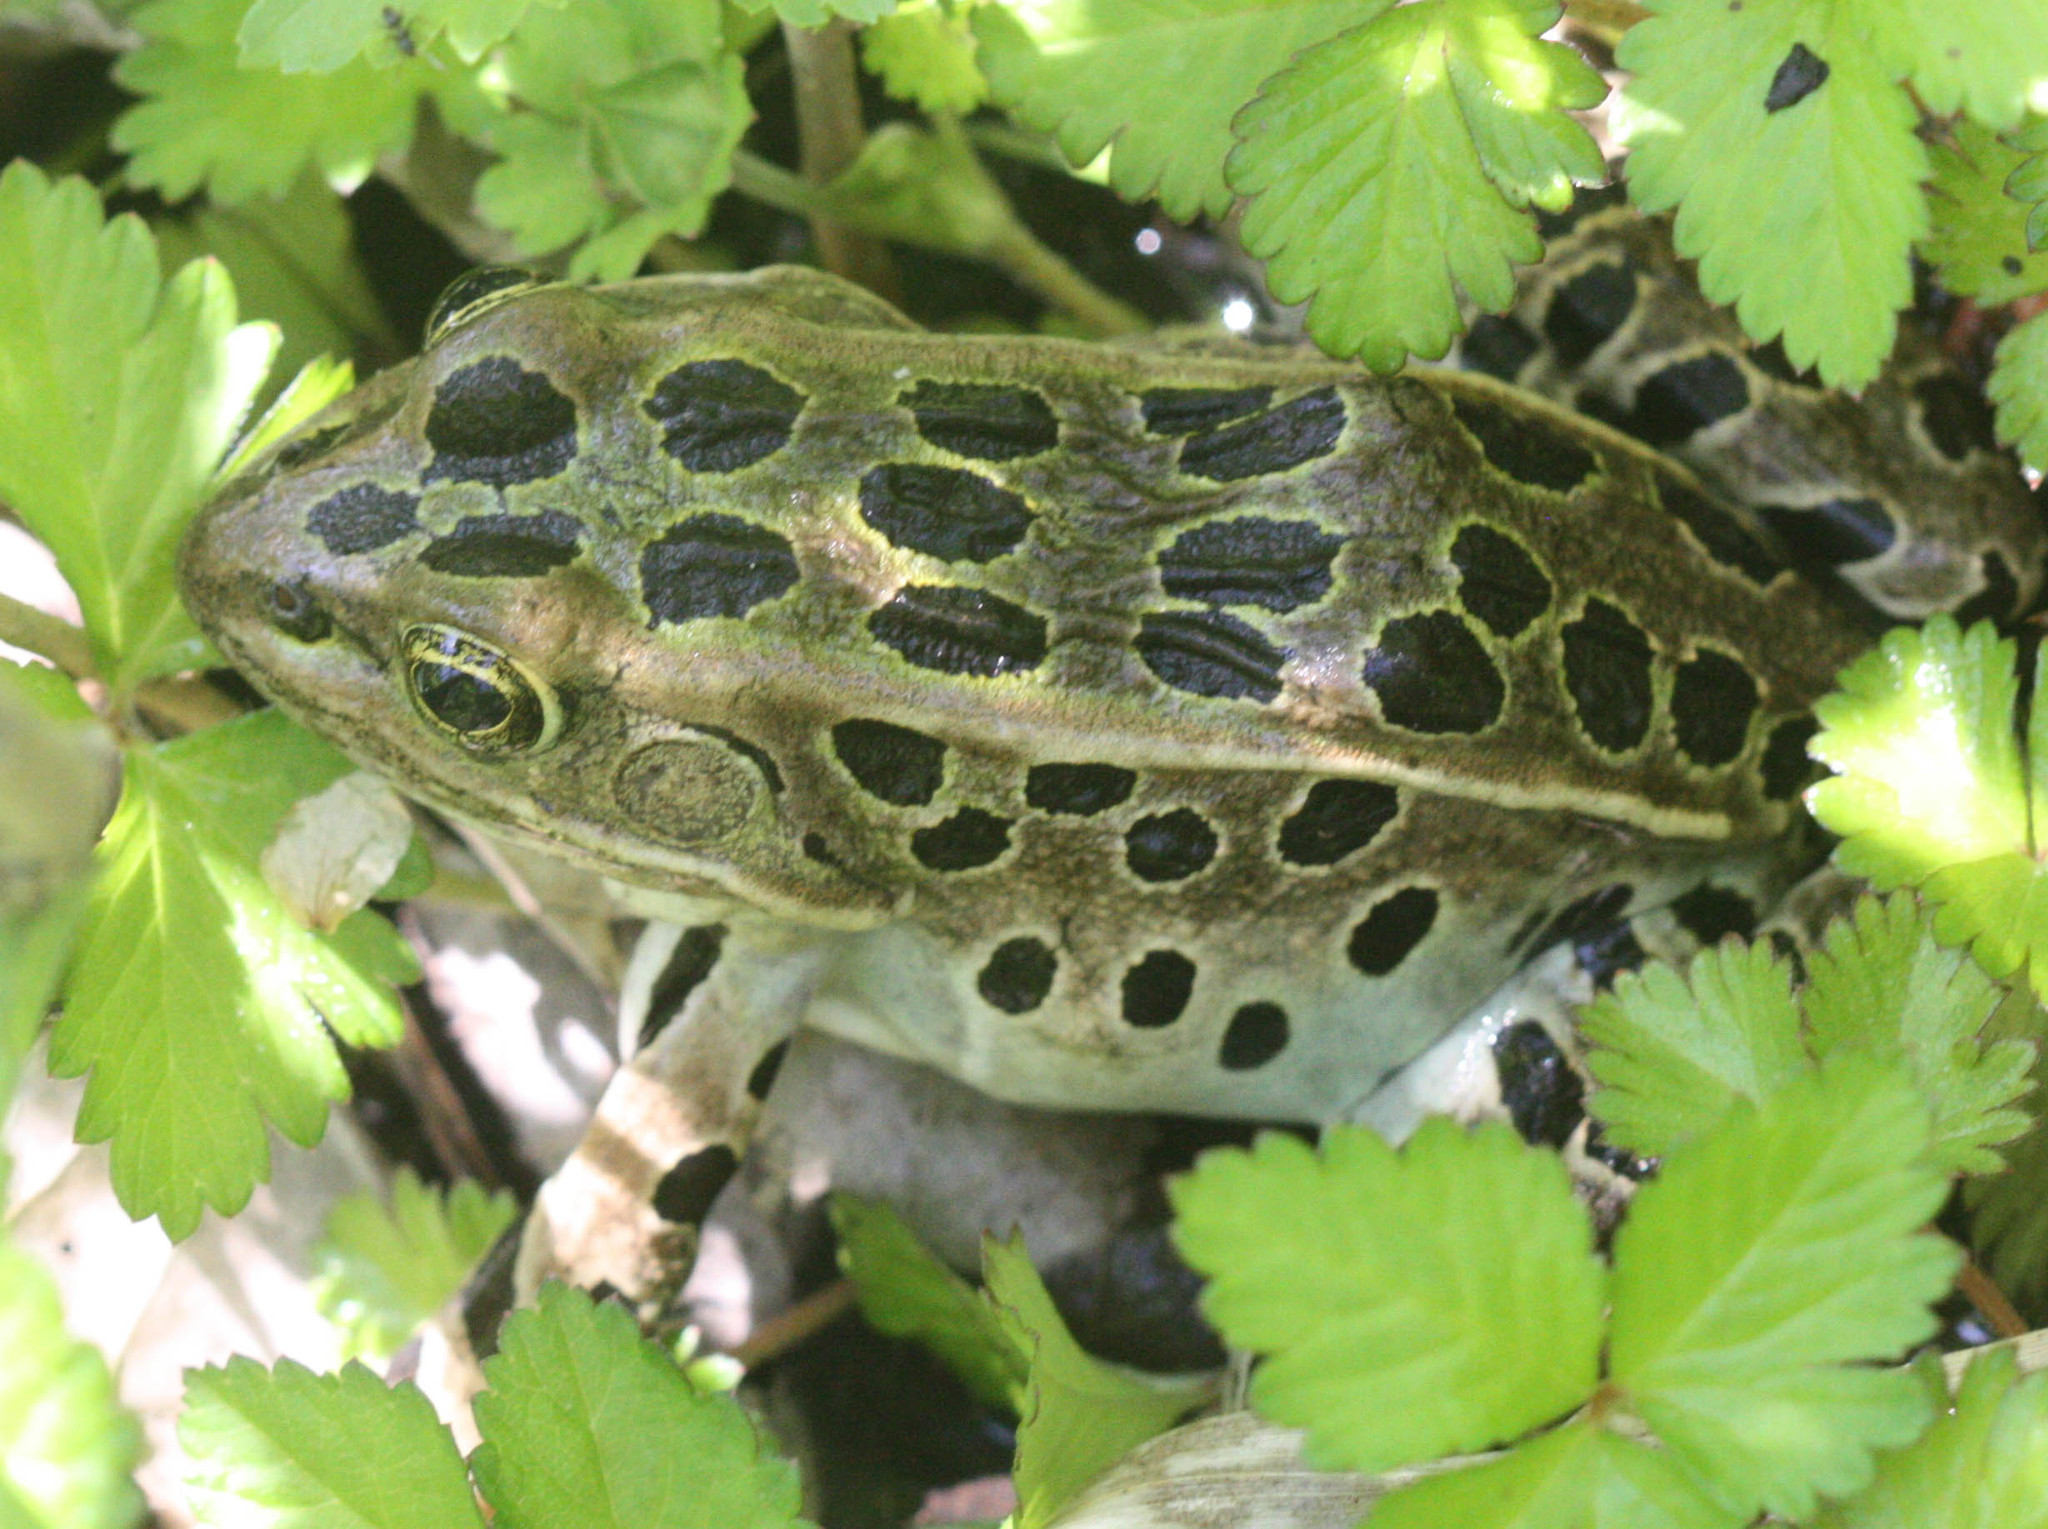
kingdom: Animalia
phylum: Chordata
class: Amphibia
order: Anura
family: Ranidae
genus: Lithobates
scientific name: Lithobates pipiens
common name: Northern leopard frog
